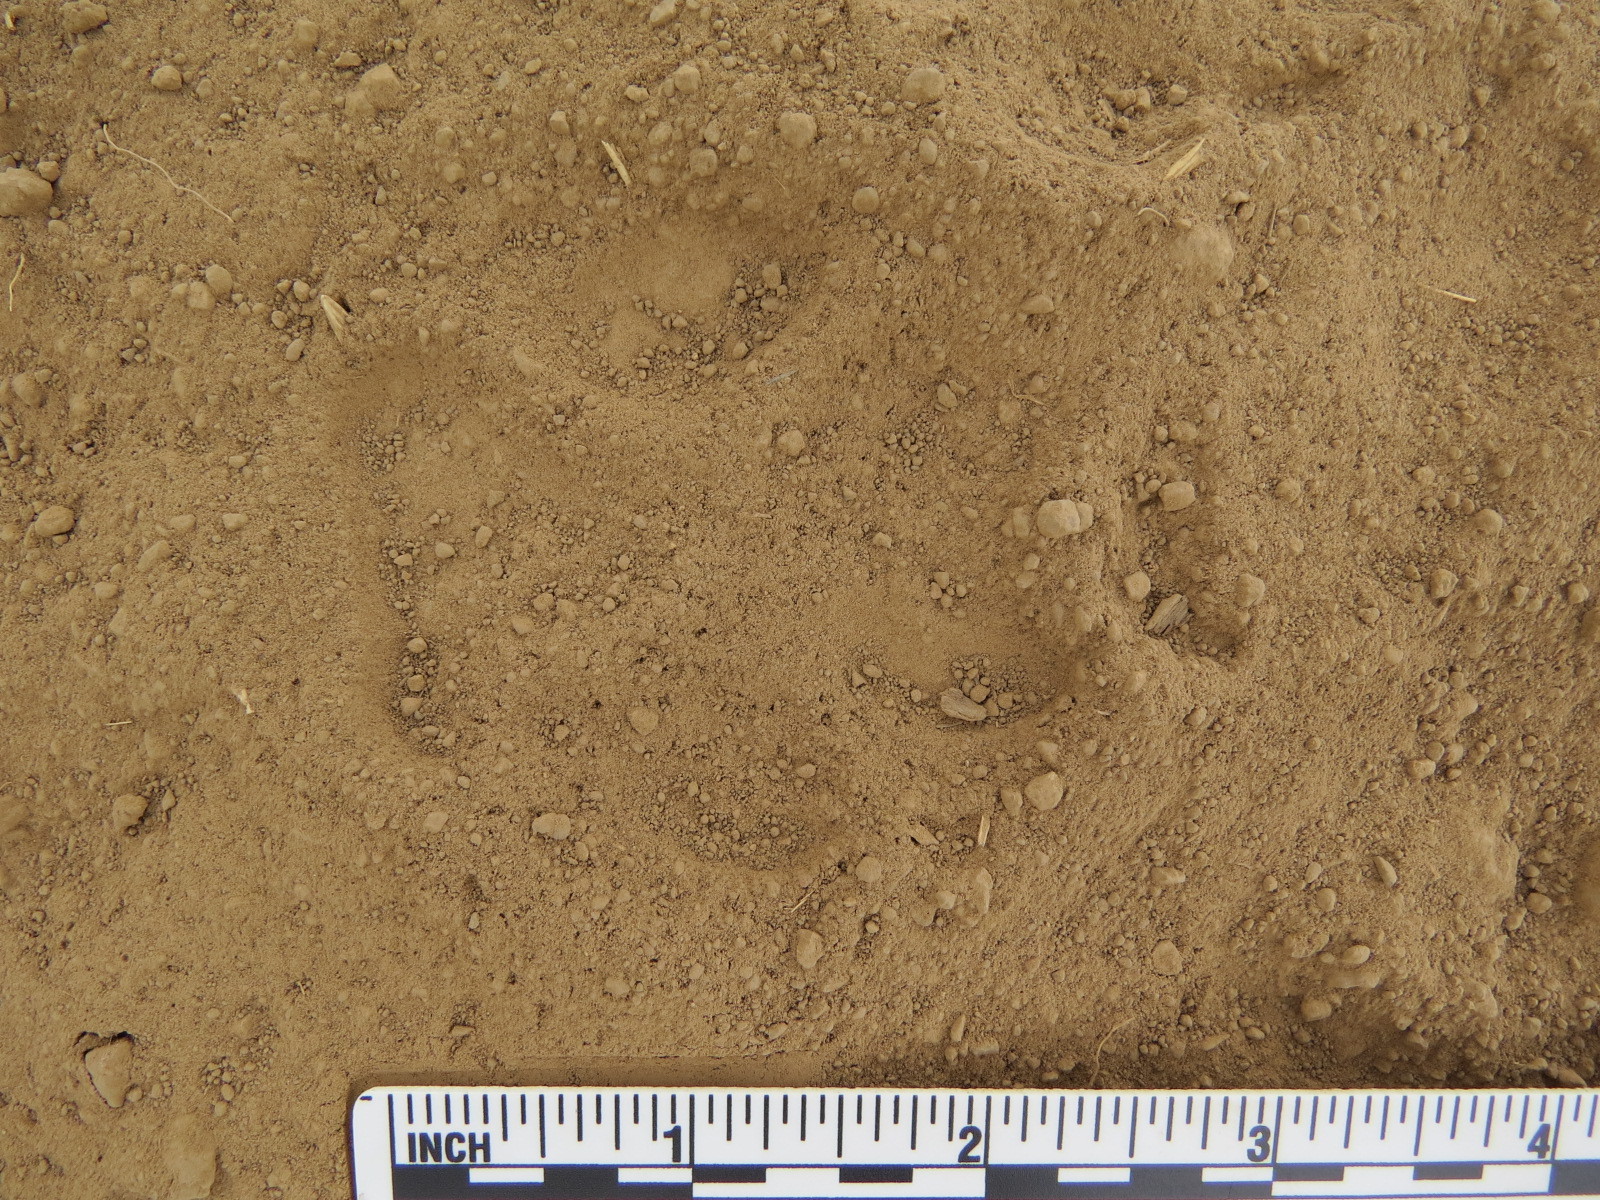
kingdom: Animalia
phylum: Chordata
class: Mammalia
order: Carnivora
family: Canidae
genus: Canis
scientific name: Canis latrans
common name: Coyote
